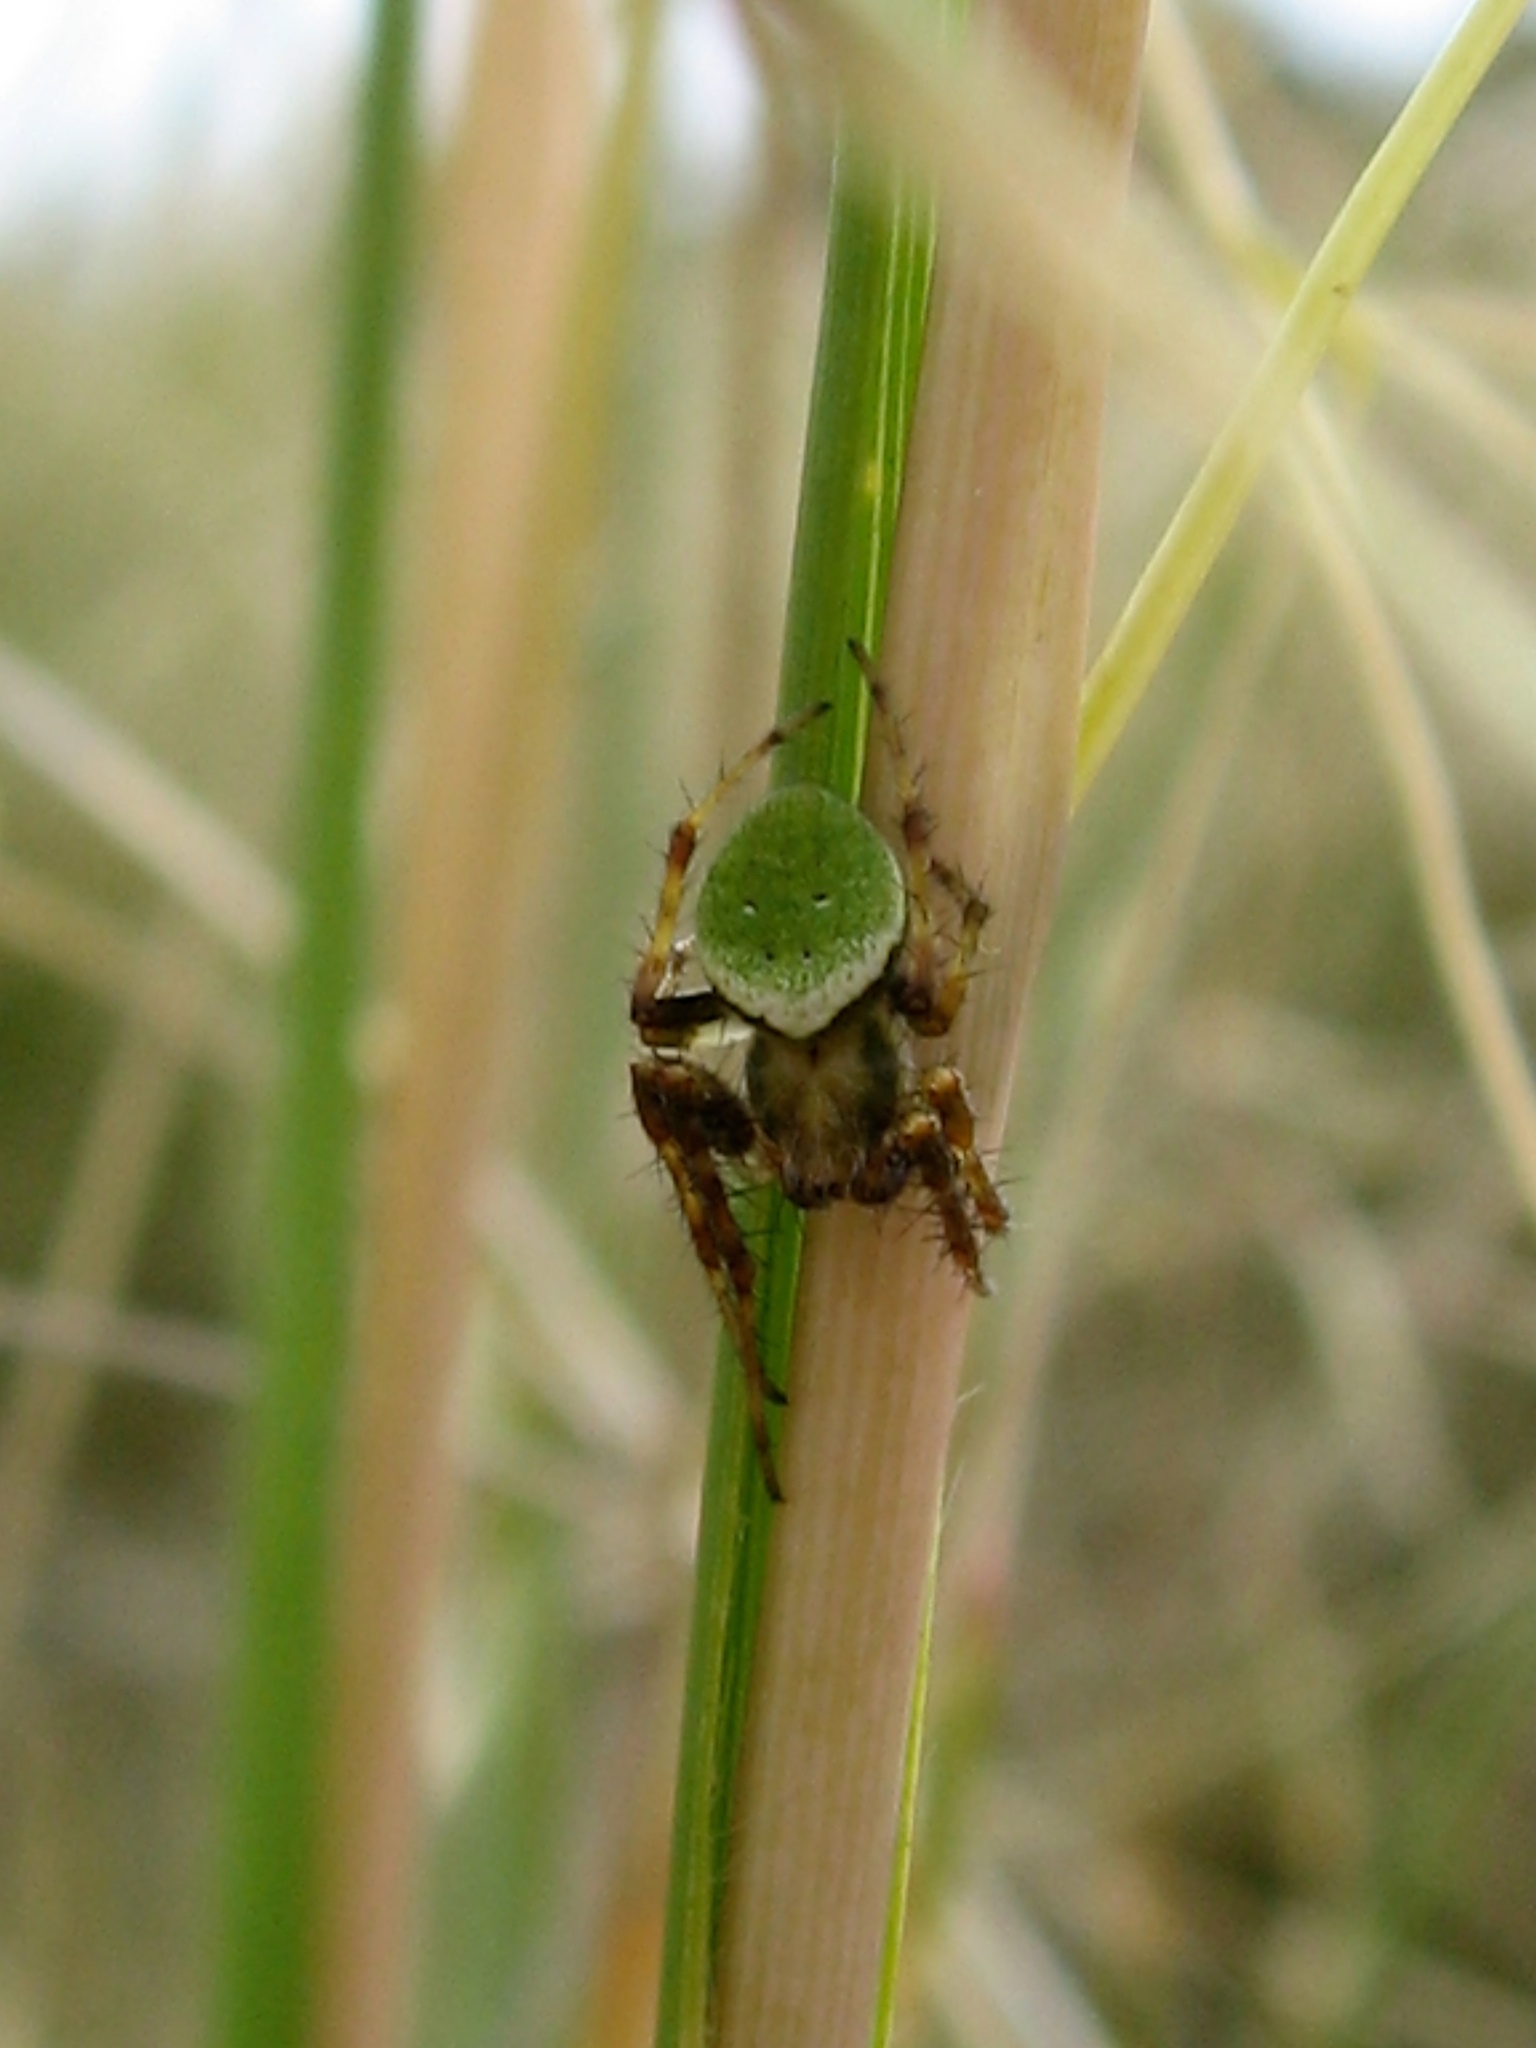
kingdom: Animalia
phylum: Arthropoda
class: Arachnida
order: Araneae
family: Araneidae
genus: Colaranea
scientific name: Colaranea viriditas
